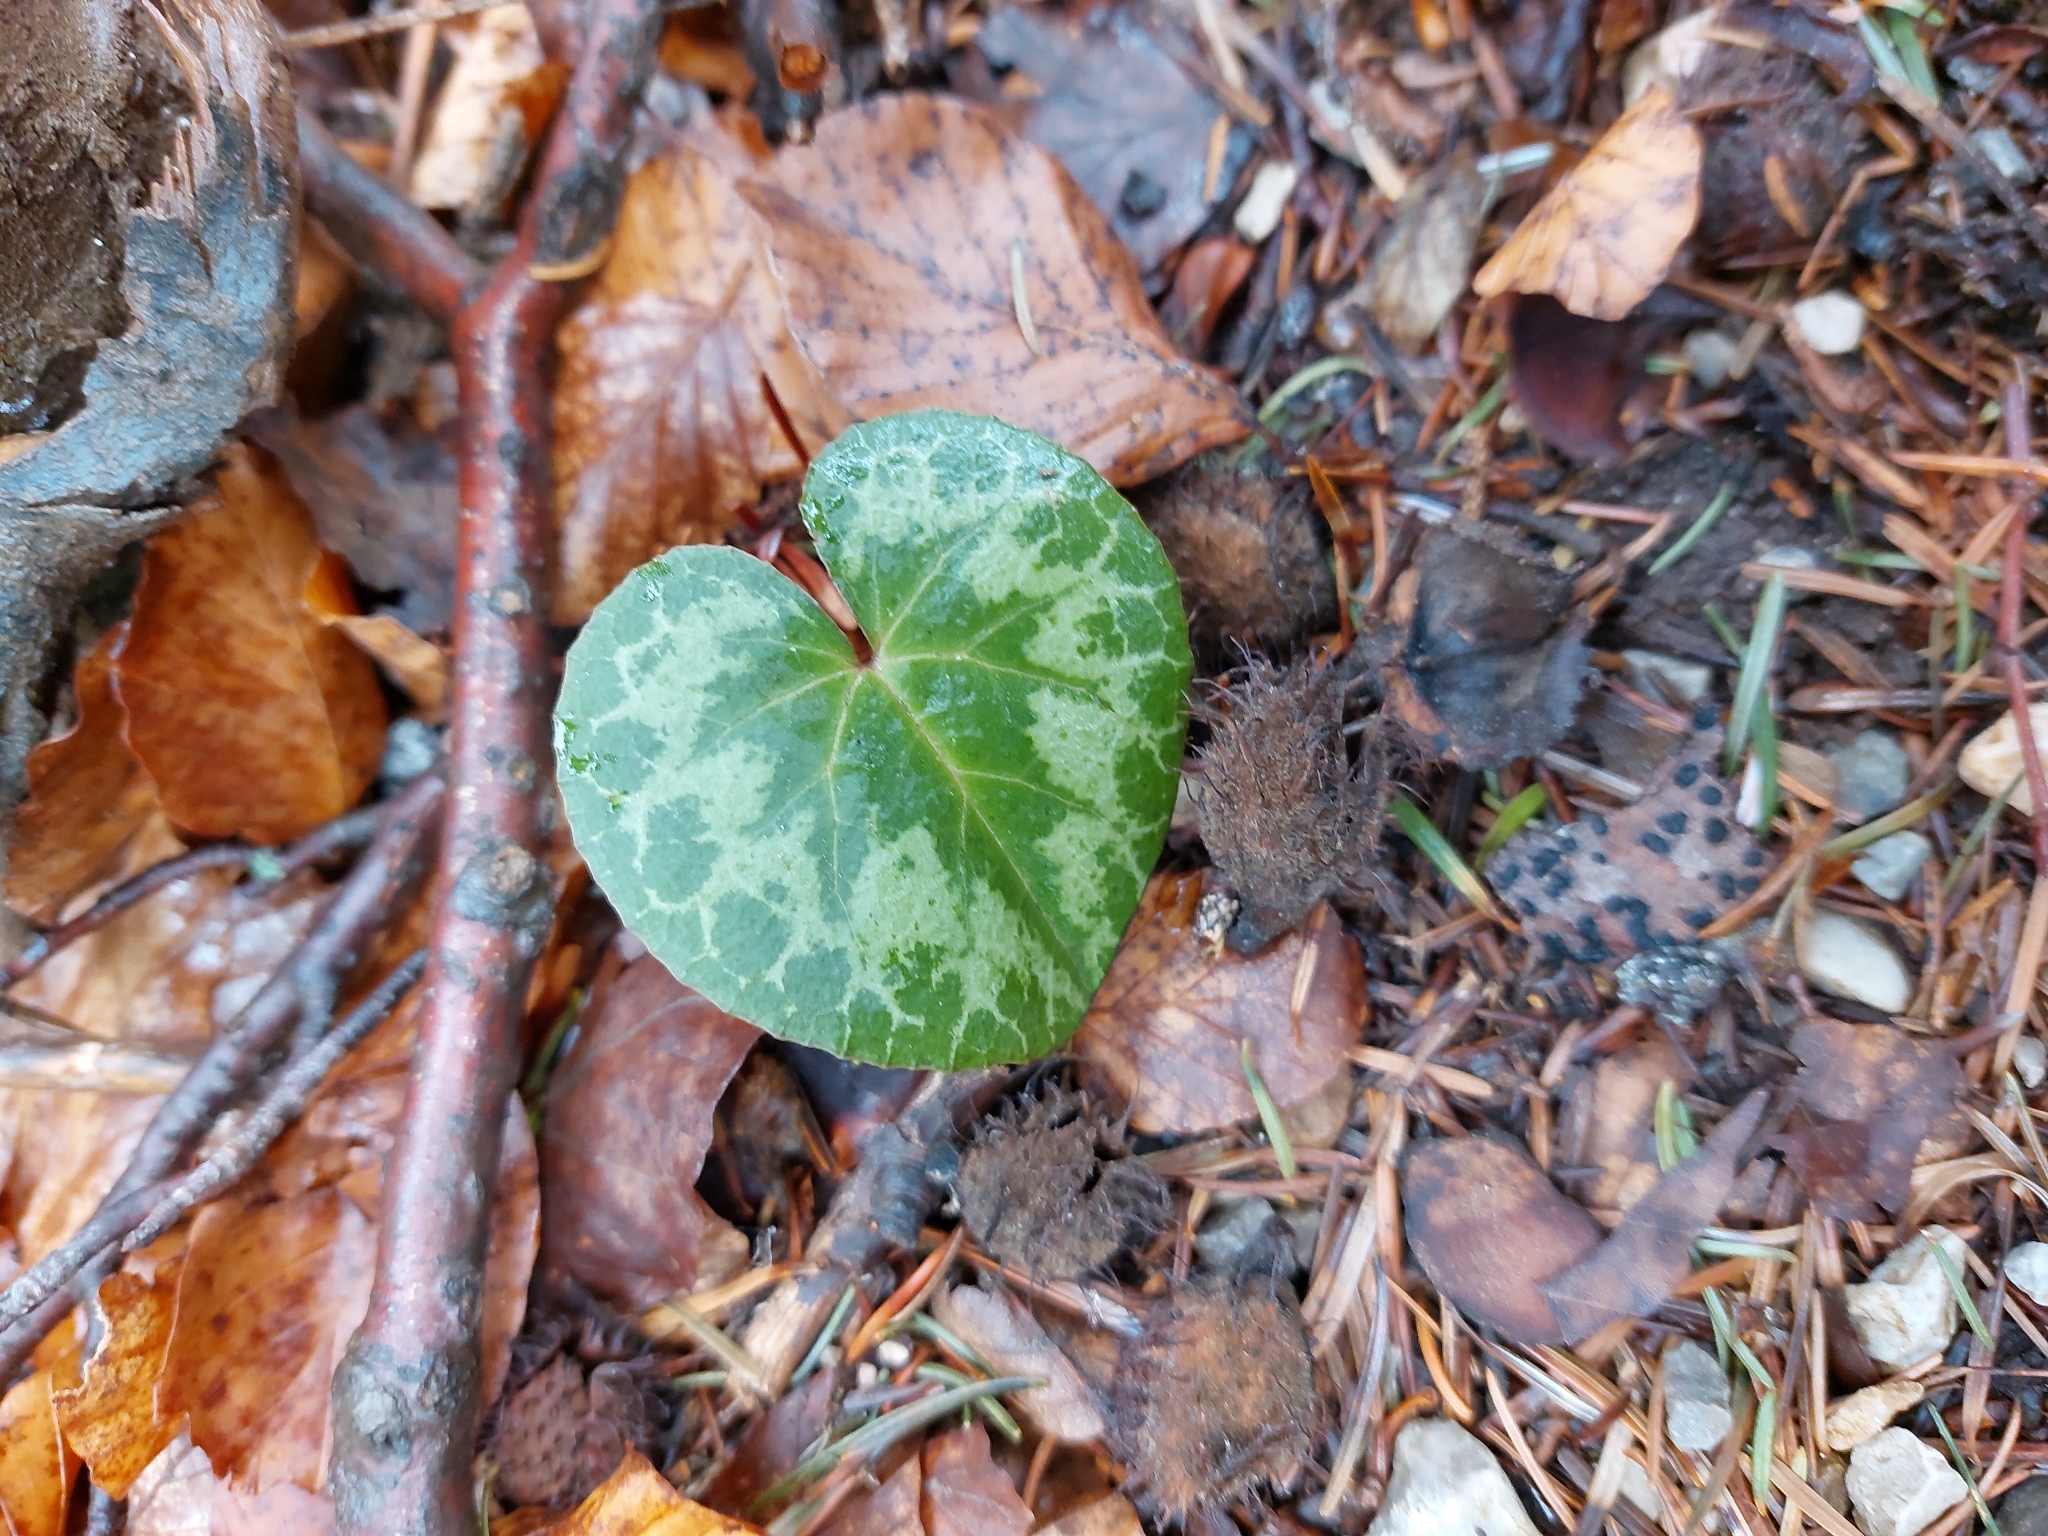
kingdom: Plantae
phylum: Tracheophyta
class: Magnoliopsida
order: Ericales
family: Primulaceae
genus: Cyclamen
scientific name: Cyclamen purpurascens
